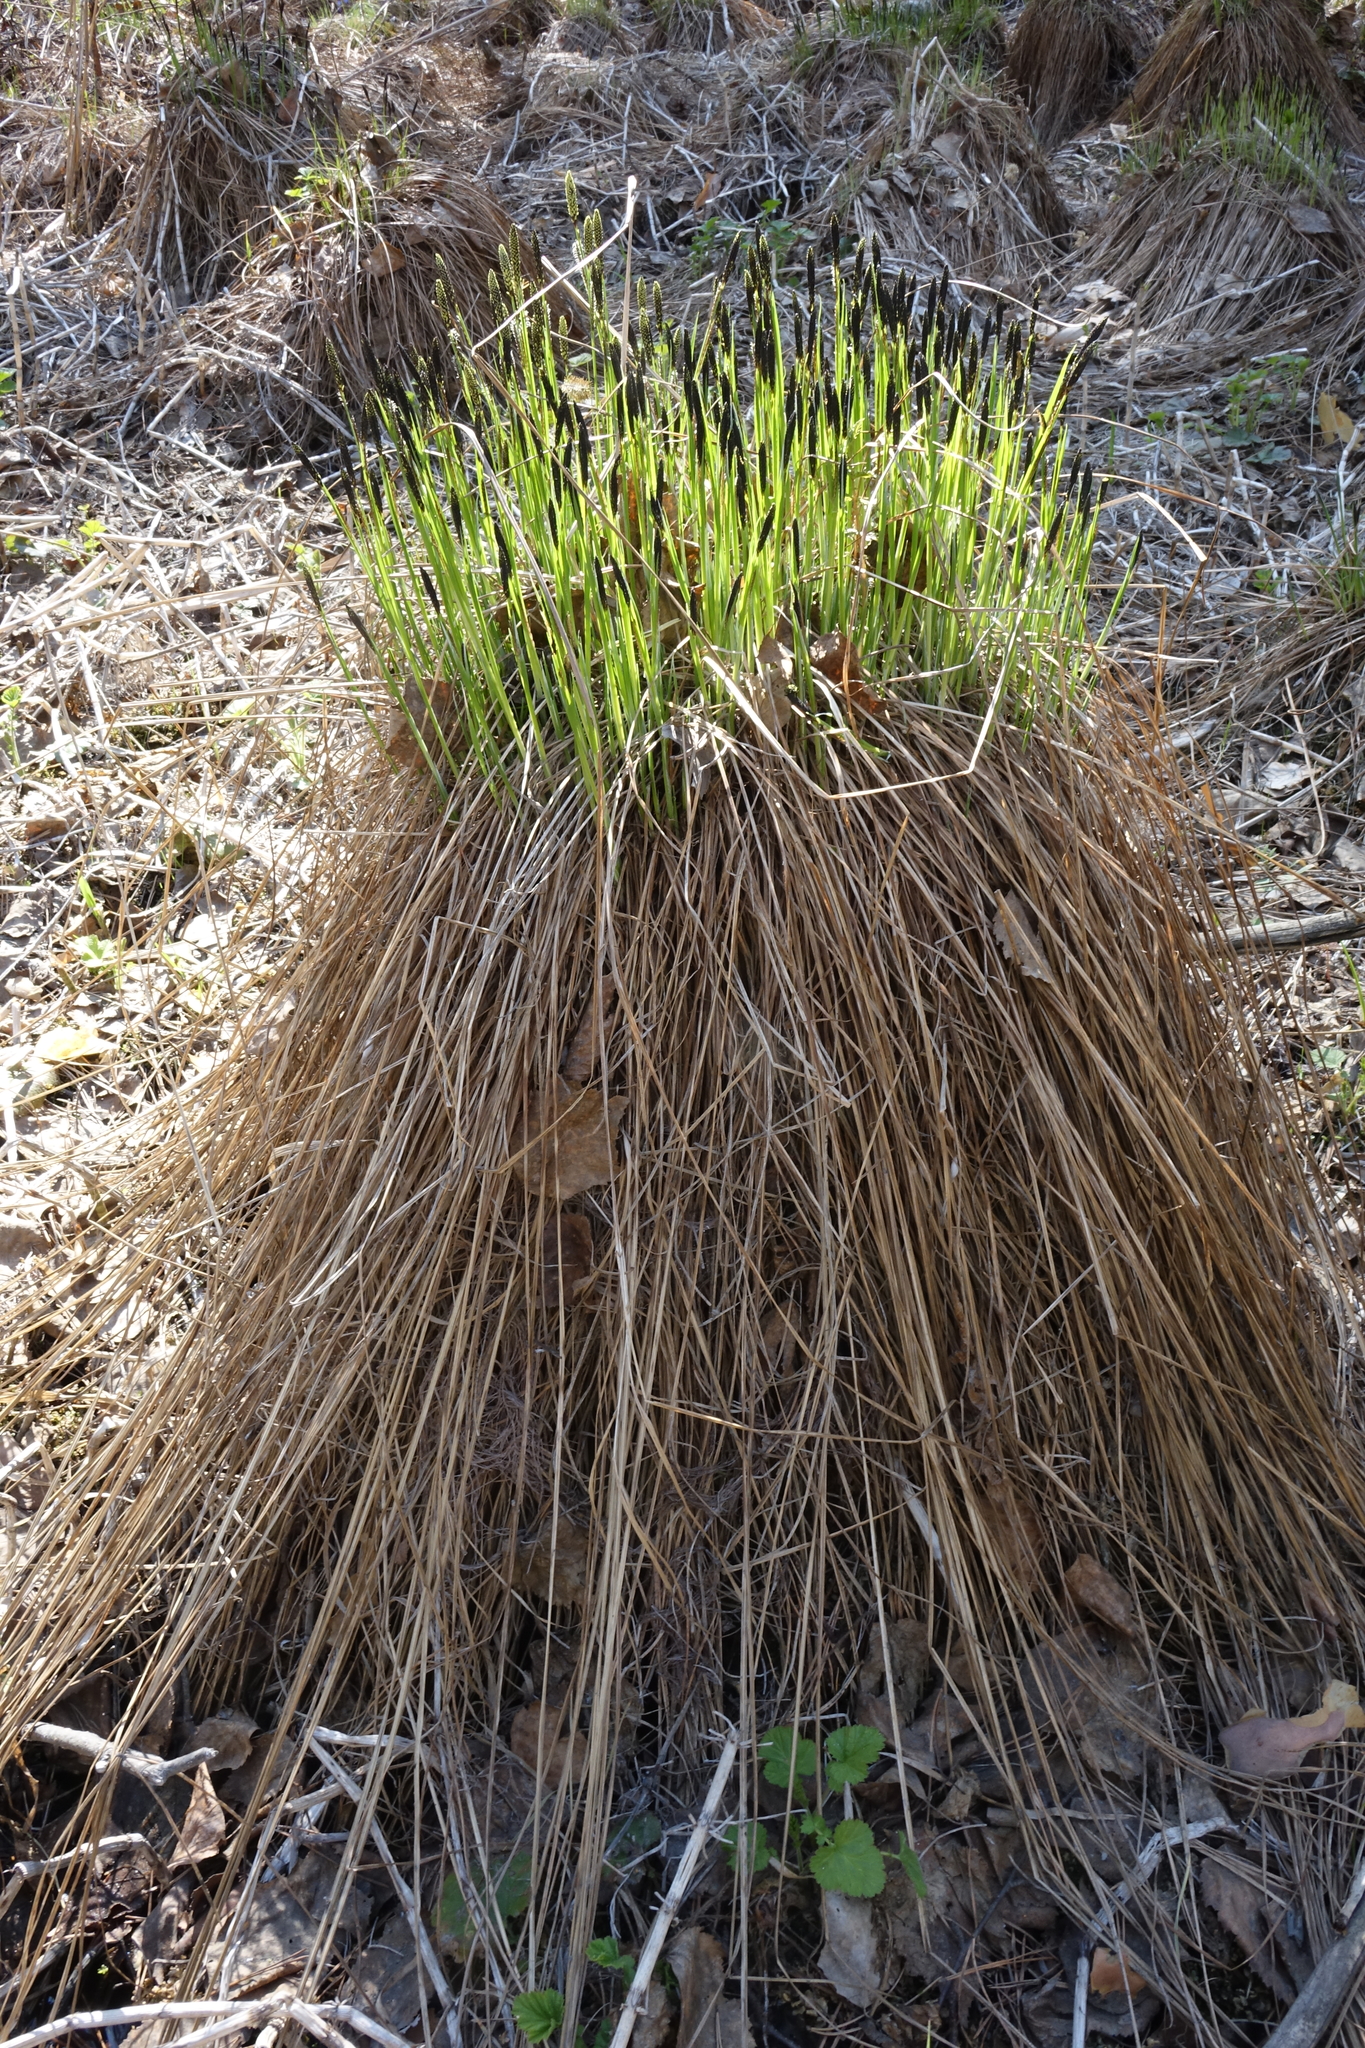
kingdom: Plantae
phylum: Tracheophyta
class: Liliopsida
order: Poales
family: Cyperaceae
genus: Carex
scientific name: Carex cespitosa
